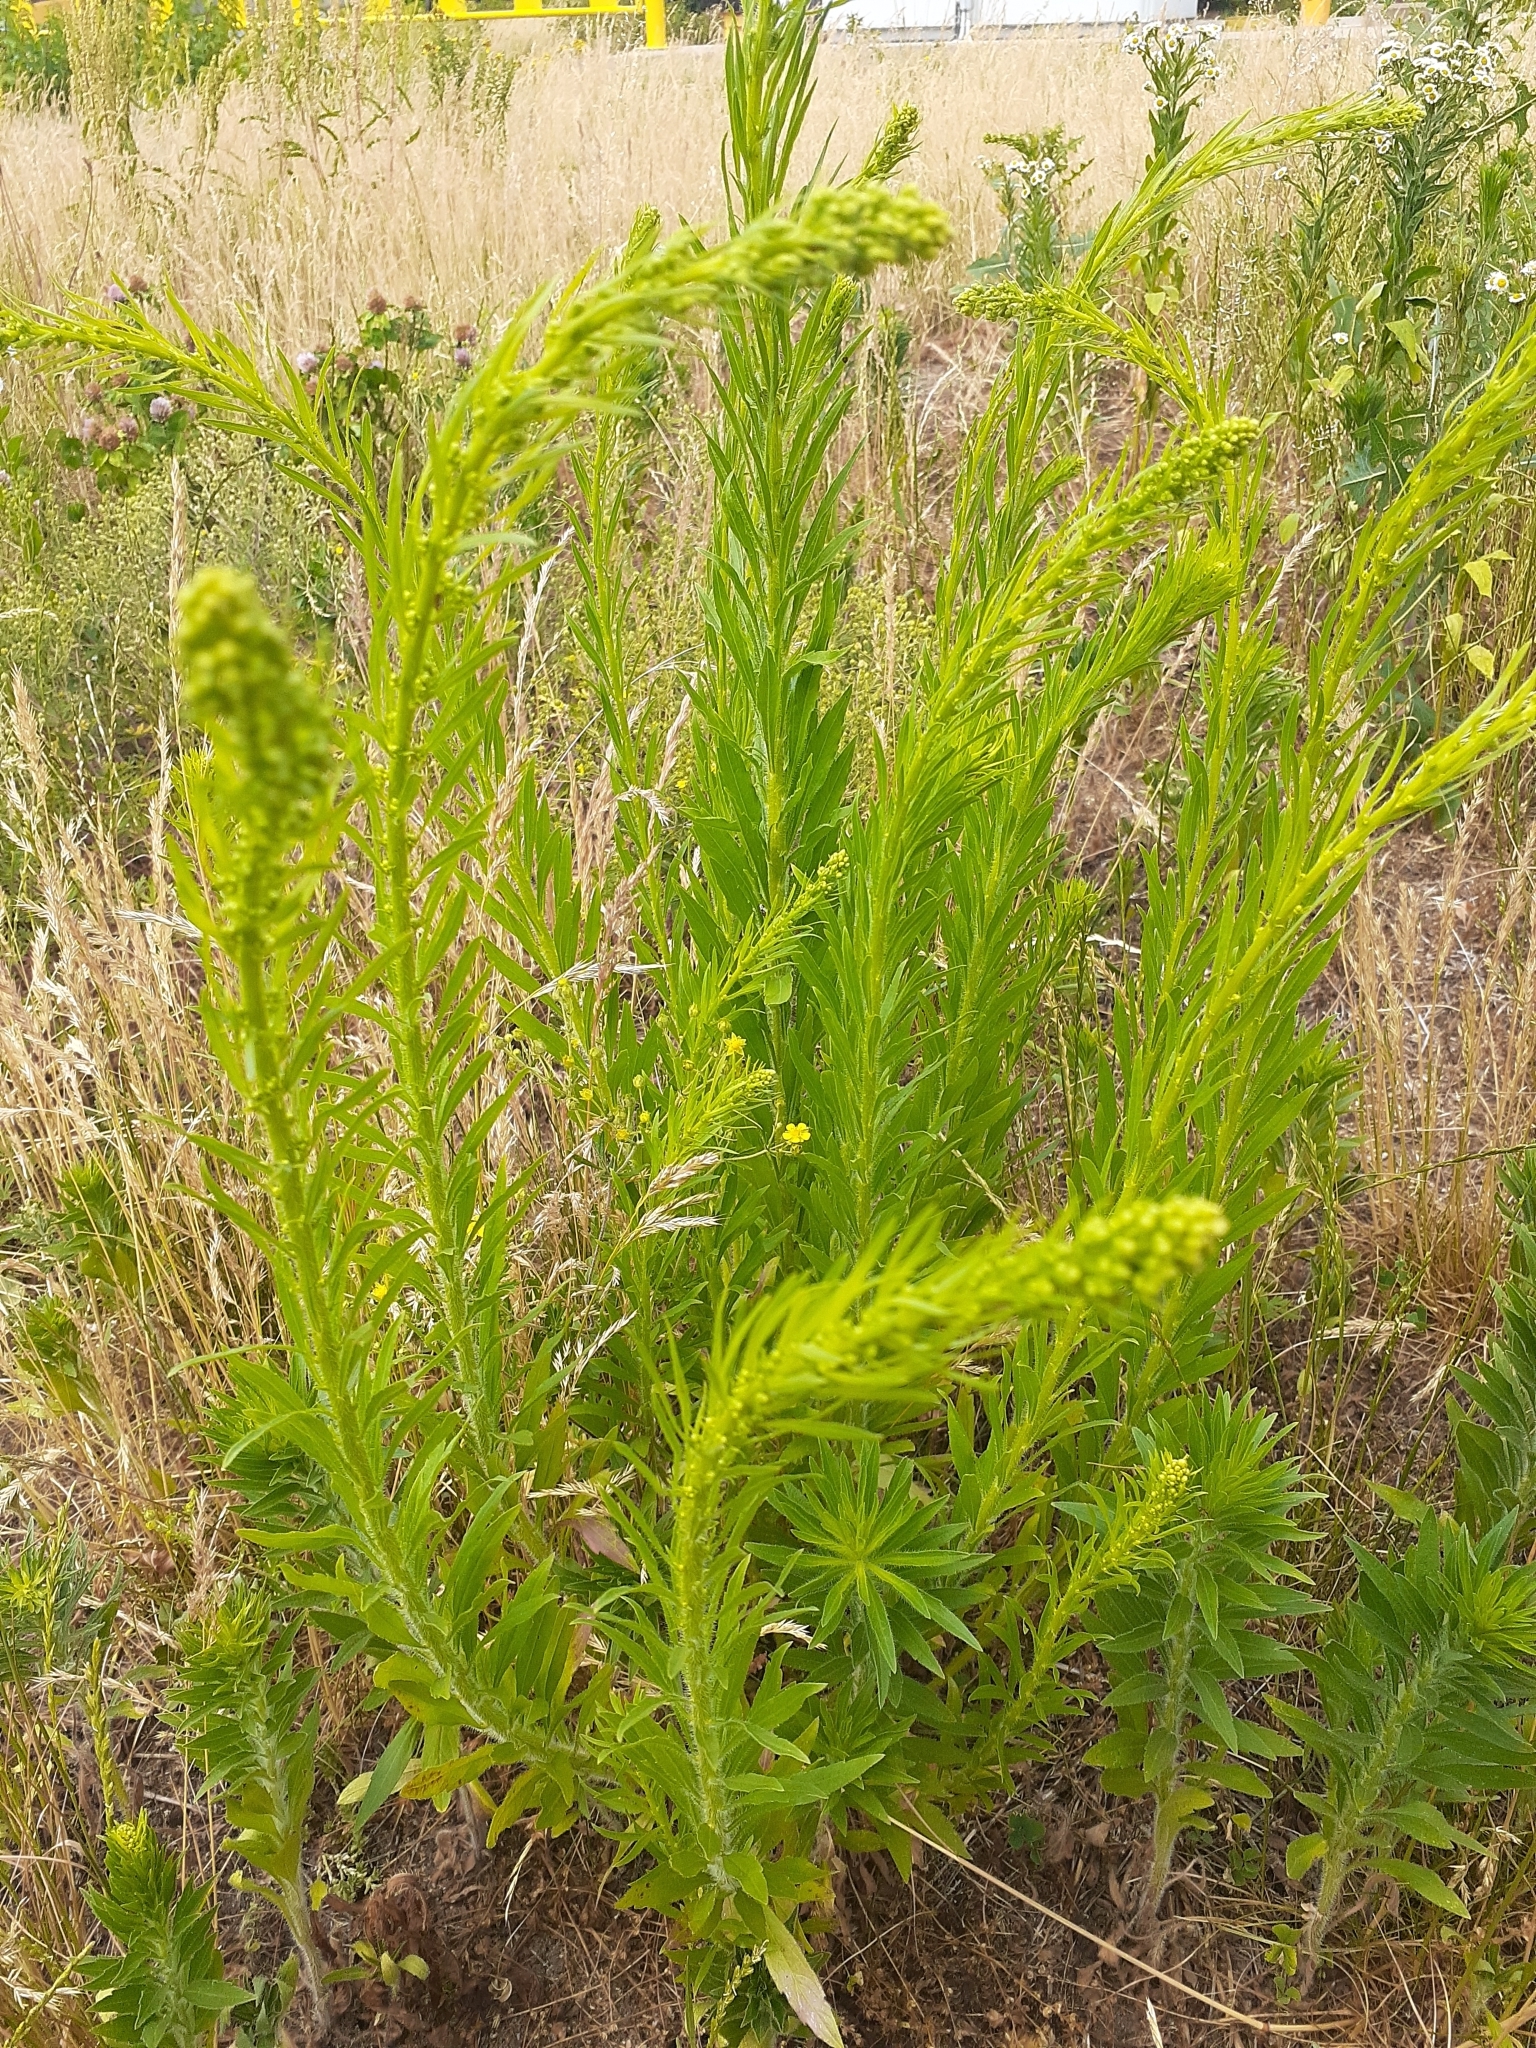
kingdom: Plantae
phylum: Tracheophyta
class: Magnoliopsida
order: Asterales
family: Asteraceae
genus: Erigeron
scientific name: Erigeron canadensis
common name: Canadian fleabane
